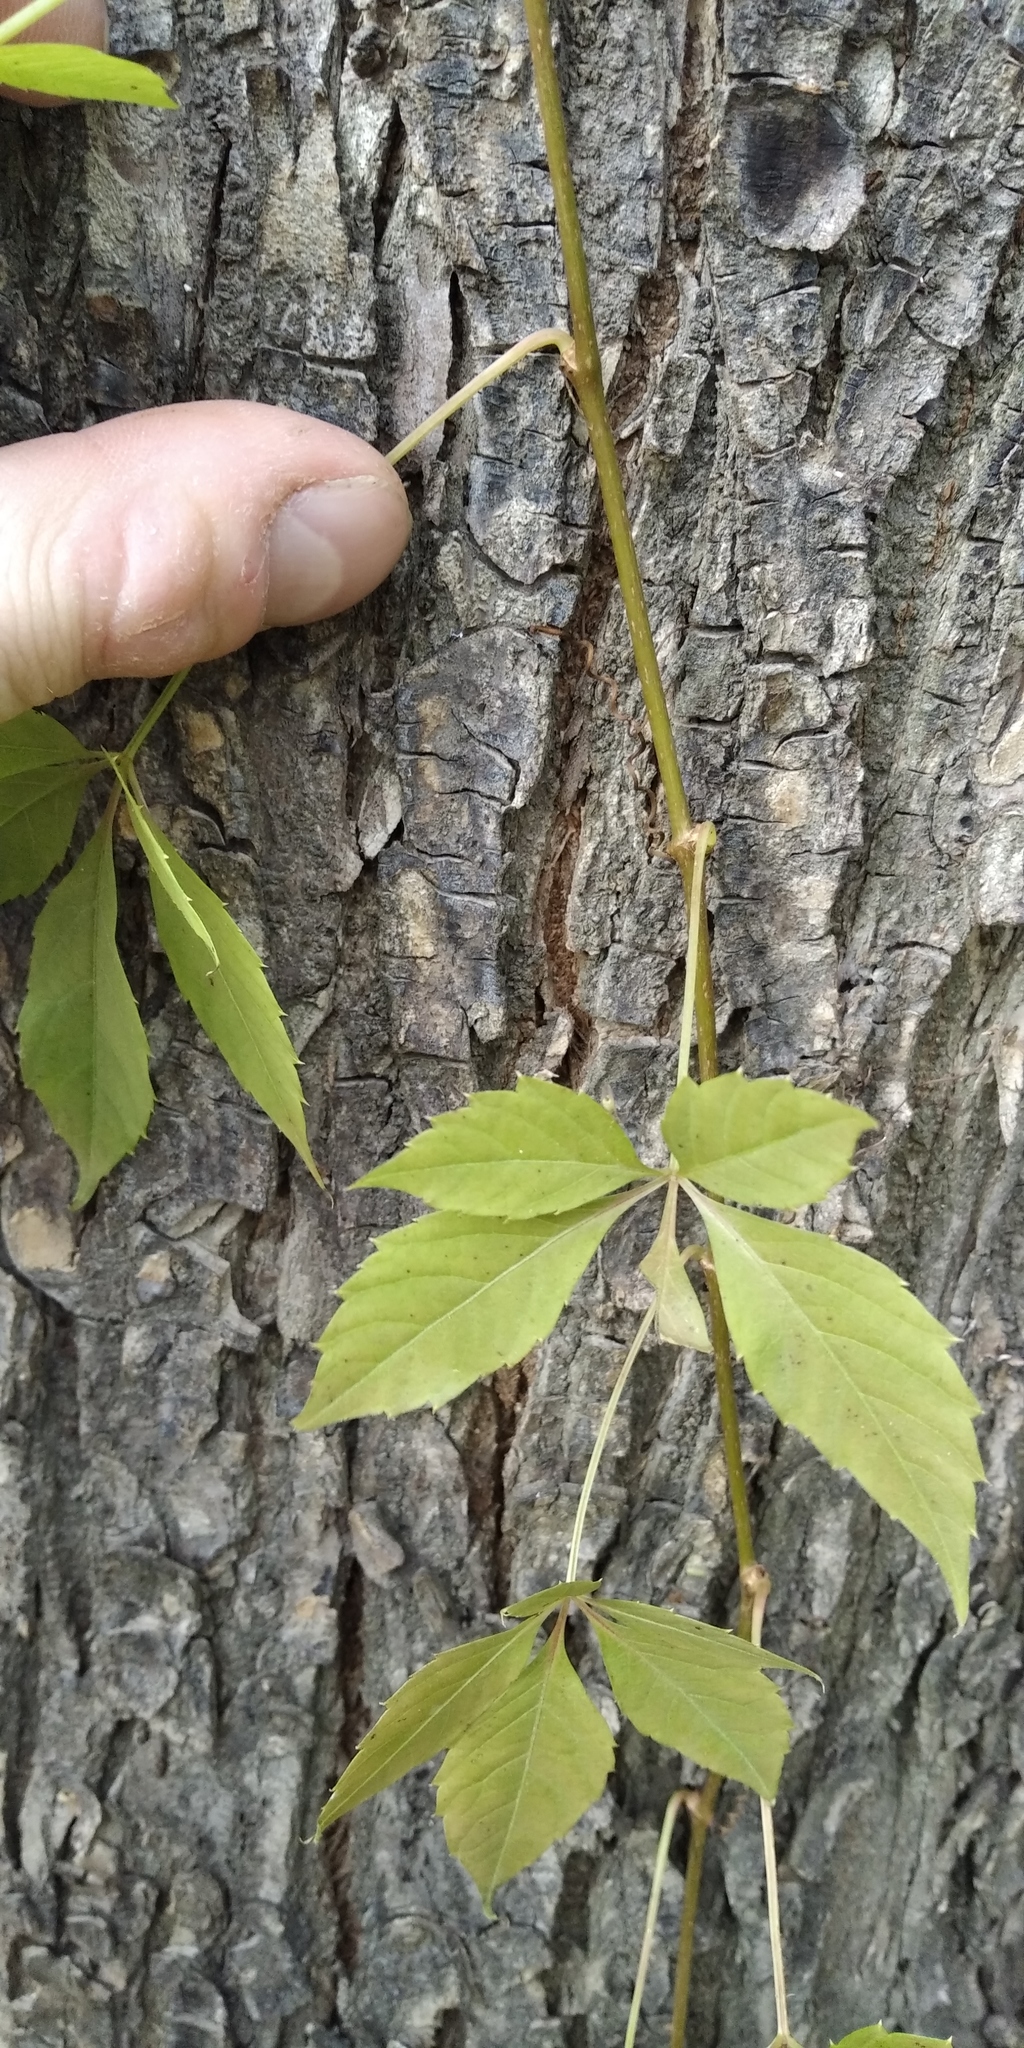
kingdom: Plantae
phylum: Tracheophyta
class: Magnoliopsida
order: Vitales
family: Vitaceae
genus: Parthenocissus
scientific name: Parthenocissus inserta
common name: False virginia-creeper
